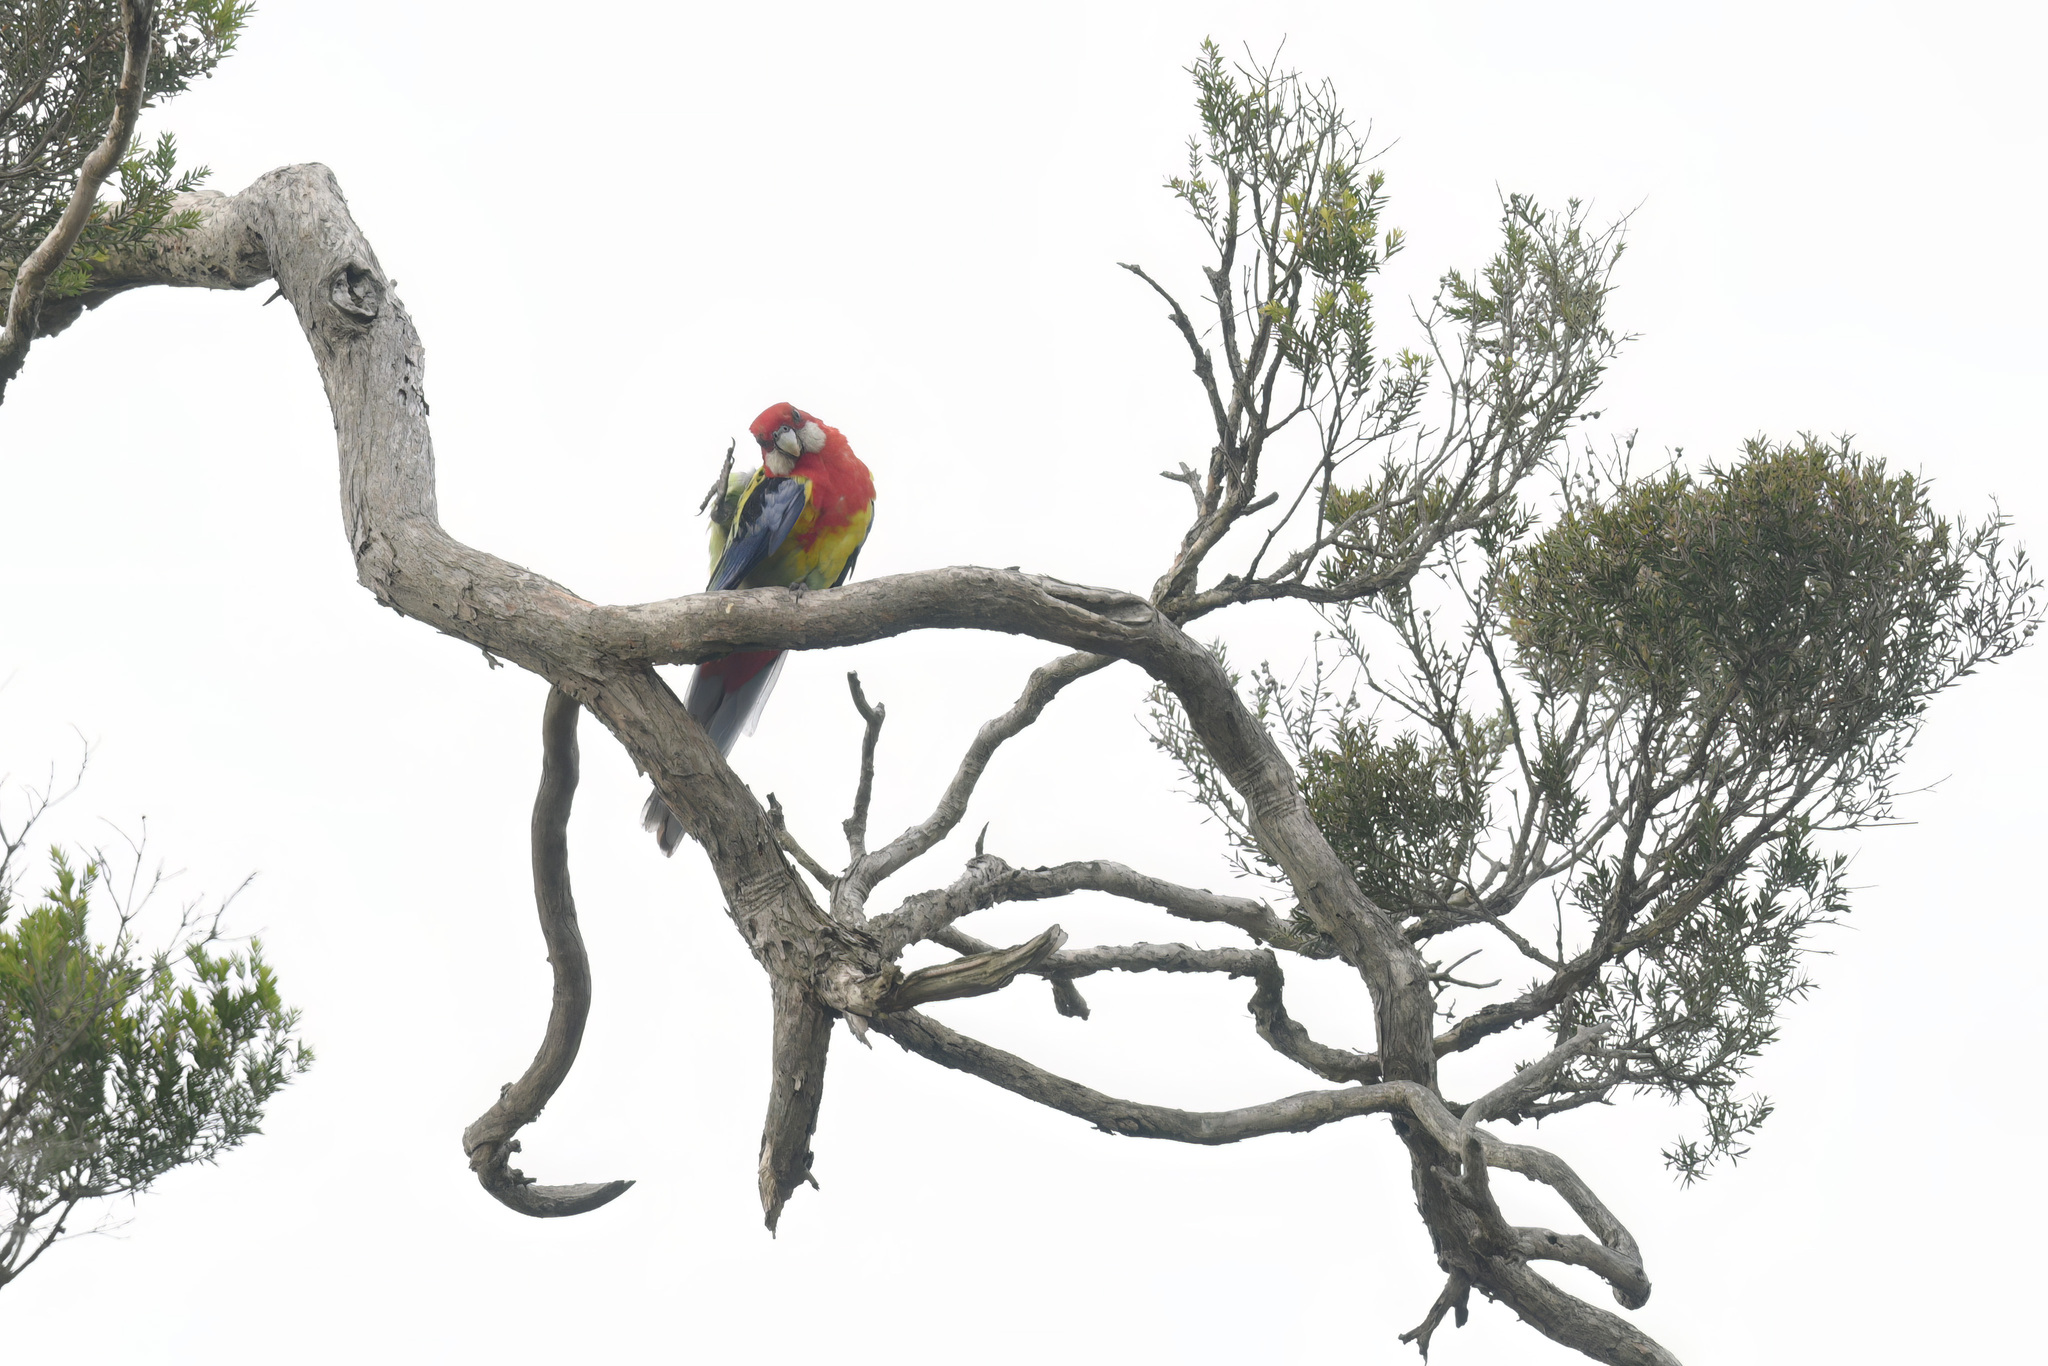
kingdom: Animalia
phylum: Chordata
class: Aves
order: Psittaciformes
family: Psittacidae
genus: Platycercus
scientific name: Platycercus eximius
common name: Eastern rosella
